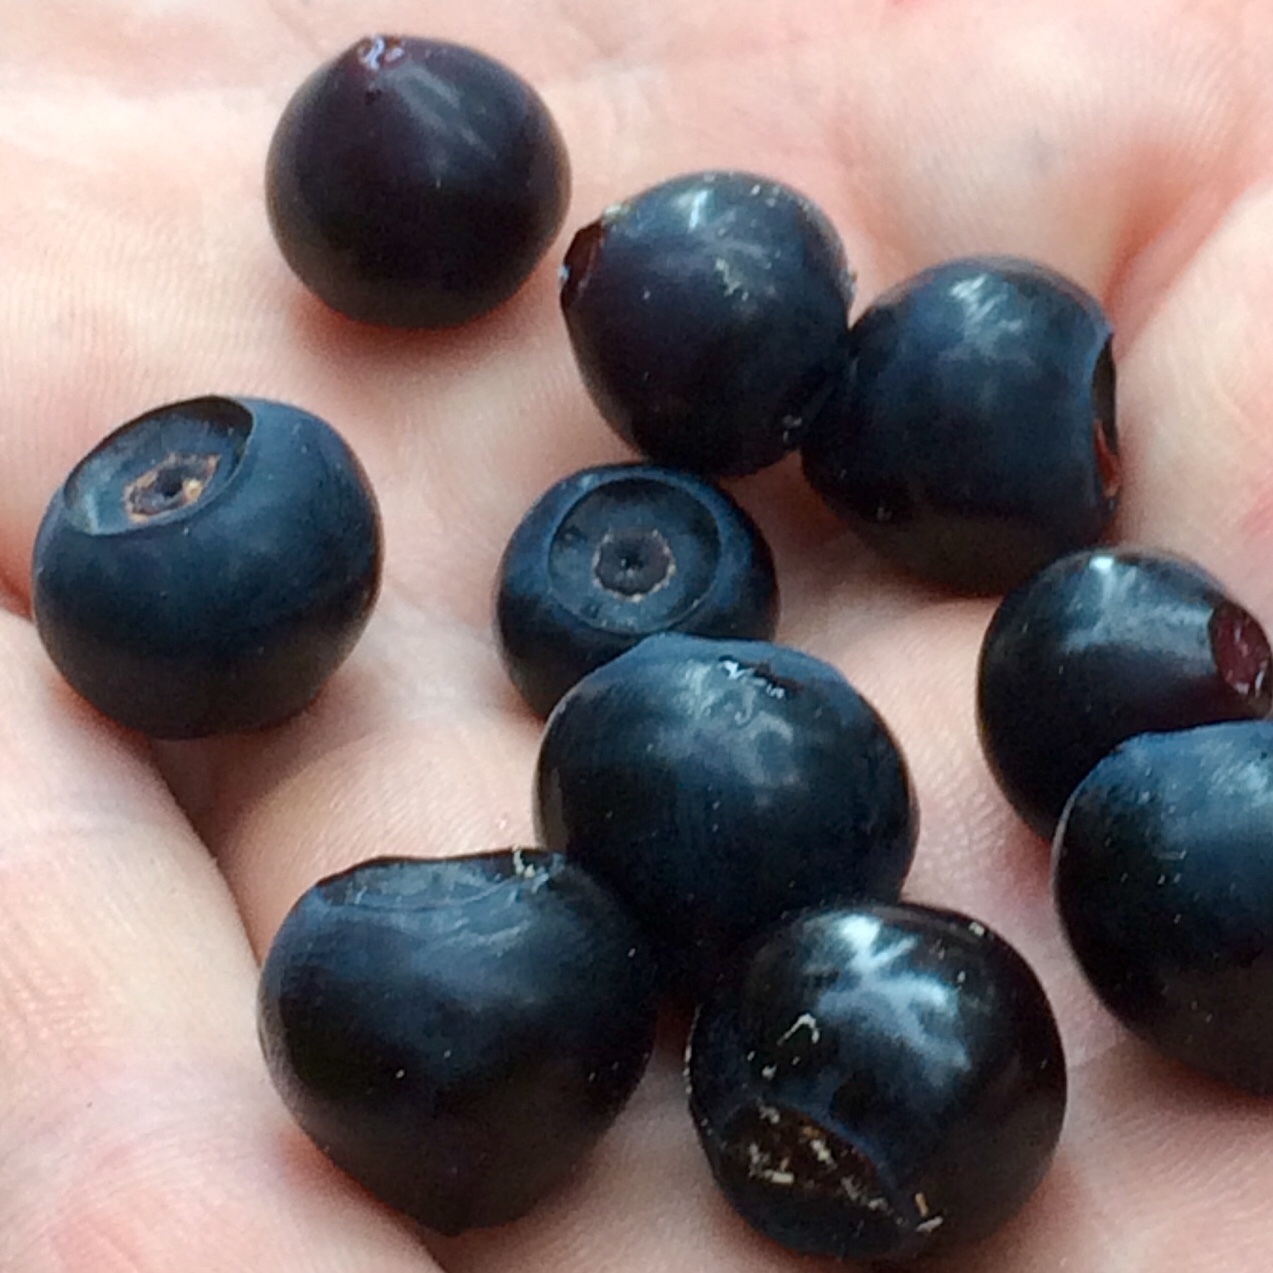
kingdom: Plantae
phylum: Tracheophyta
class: Magnoliopsida
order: Ericales
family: Ericaceae
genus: Vaccinium
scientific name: Vaccinium membranaceum
